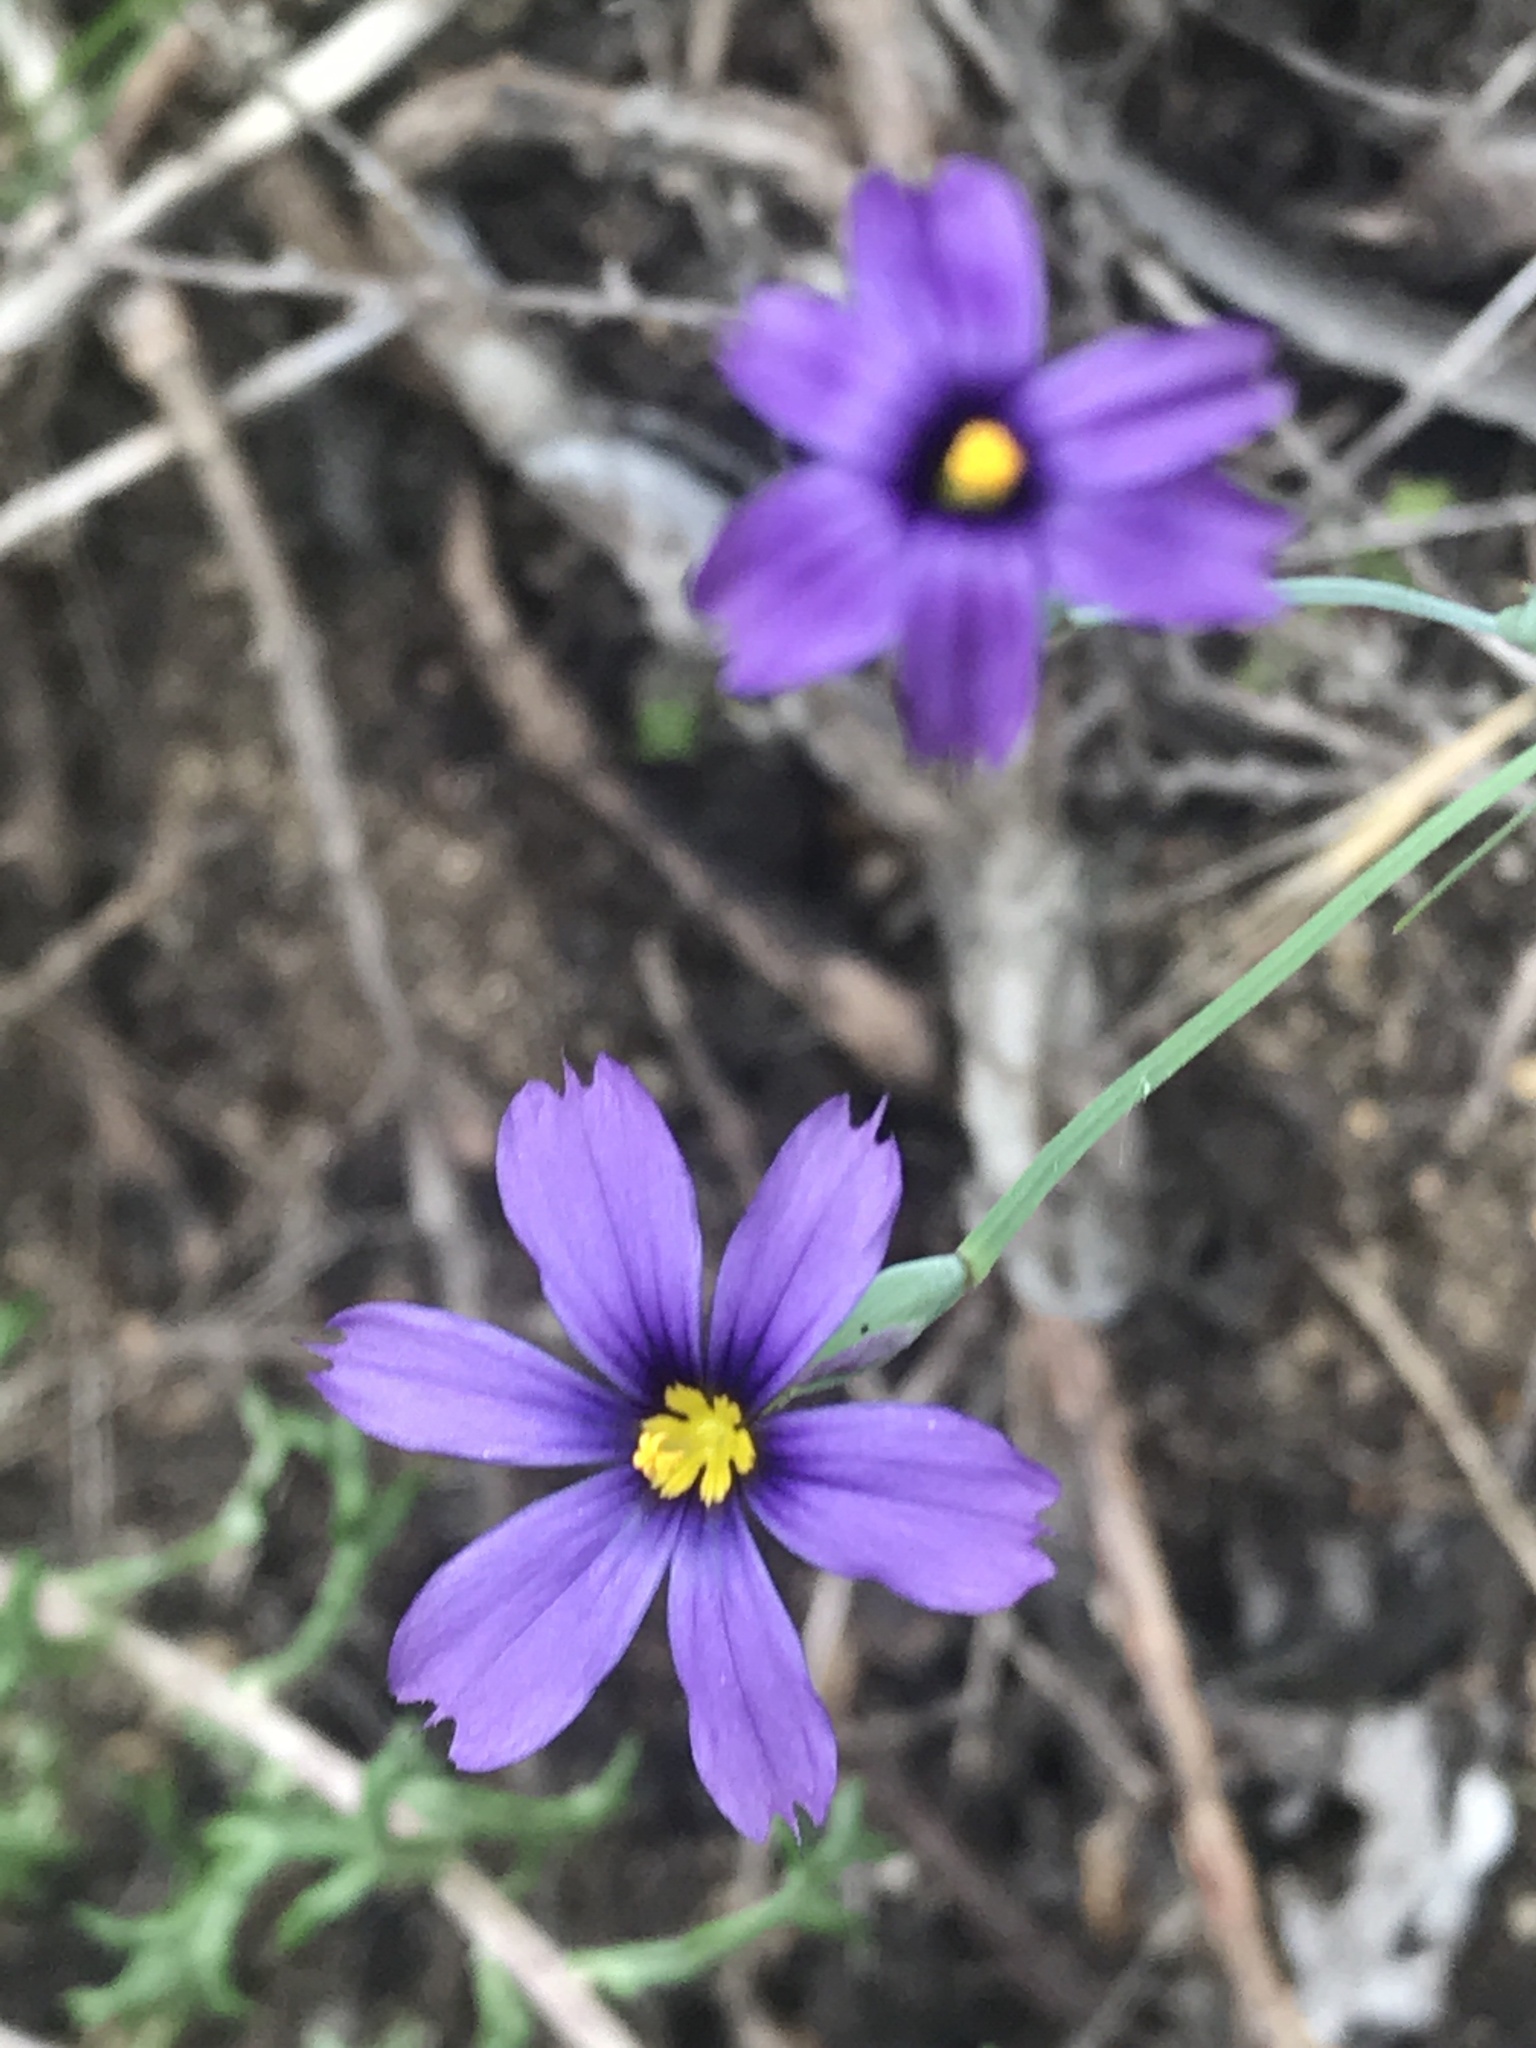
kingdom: Plantae
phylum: Tracheophyta
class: Liliopsida
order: Asparagales
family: Iridaceae
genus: Sisyrinchium
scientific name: Sisyrinchium bellum
